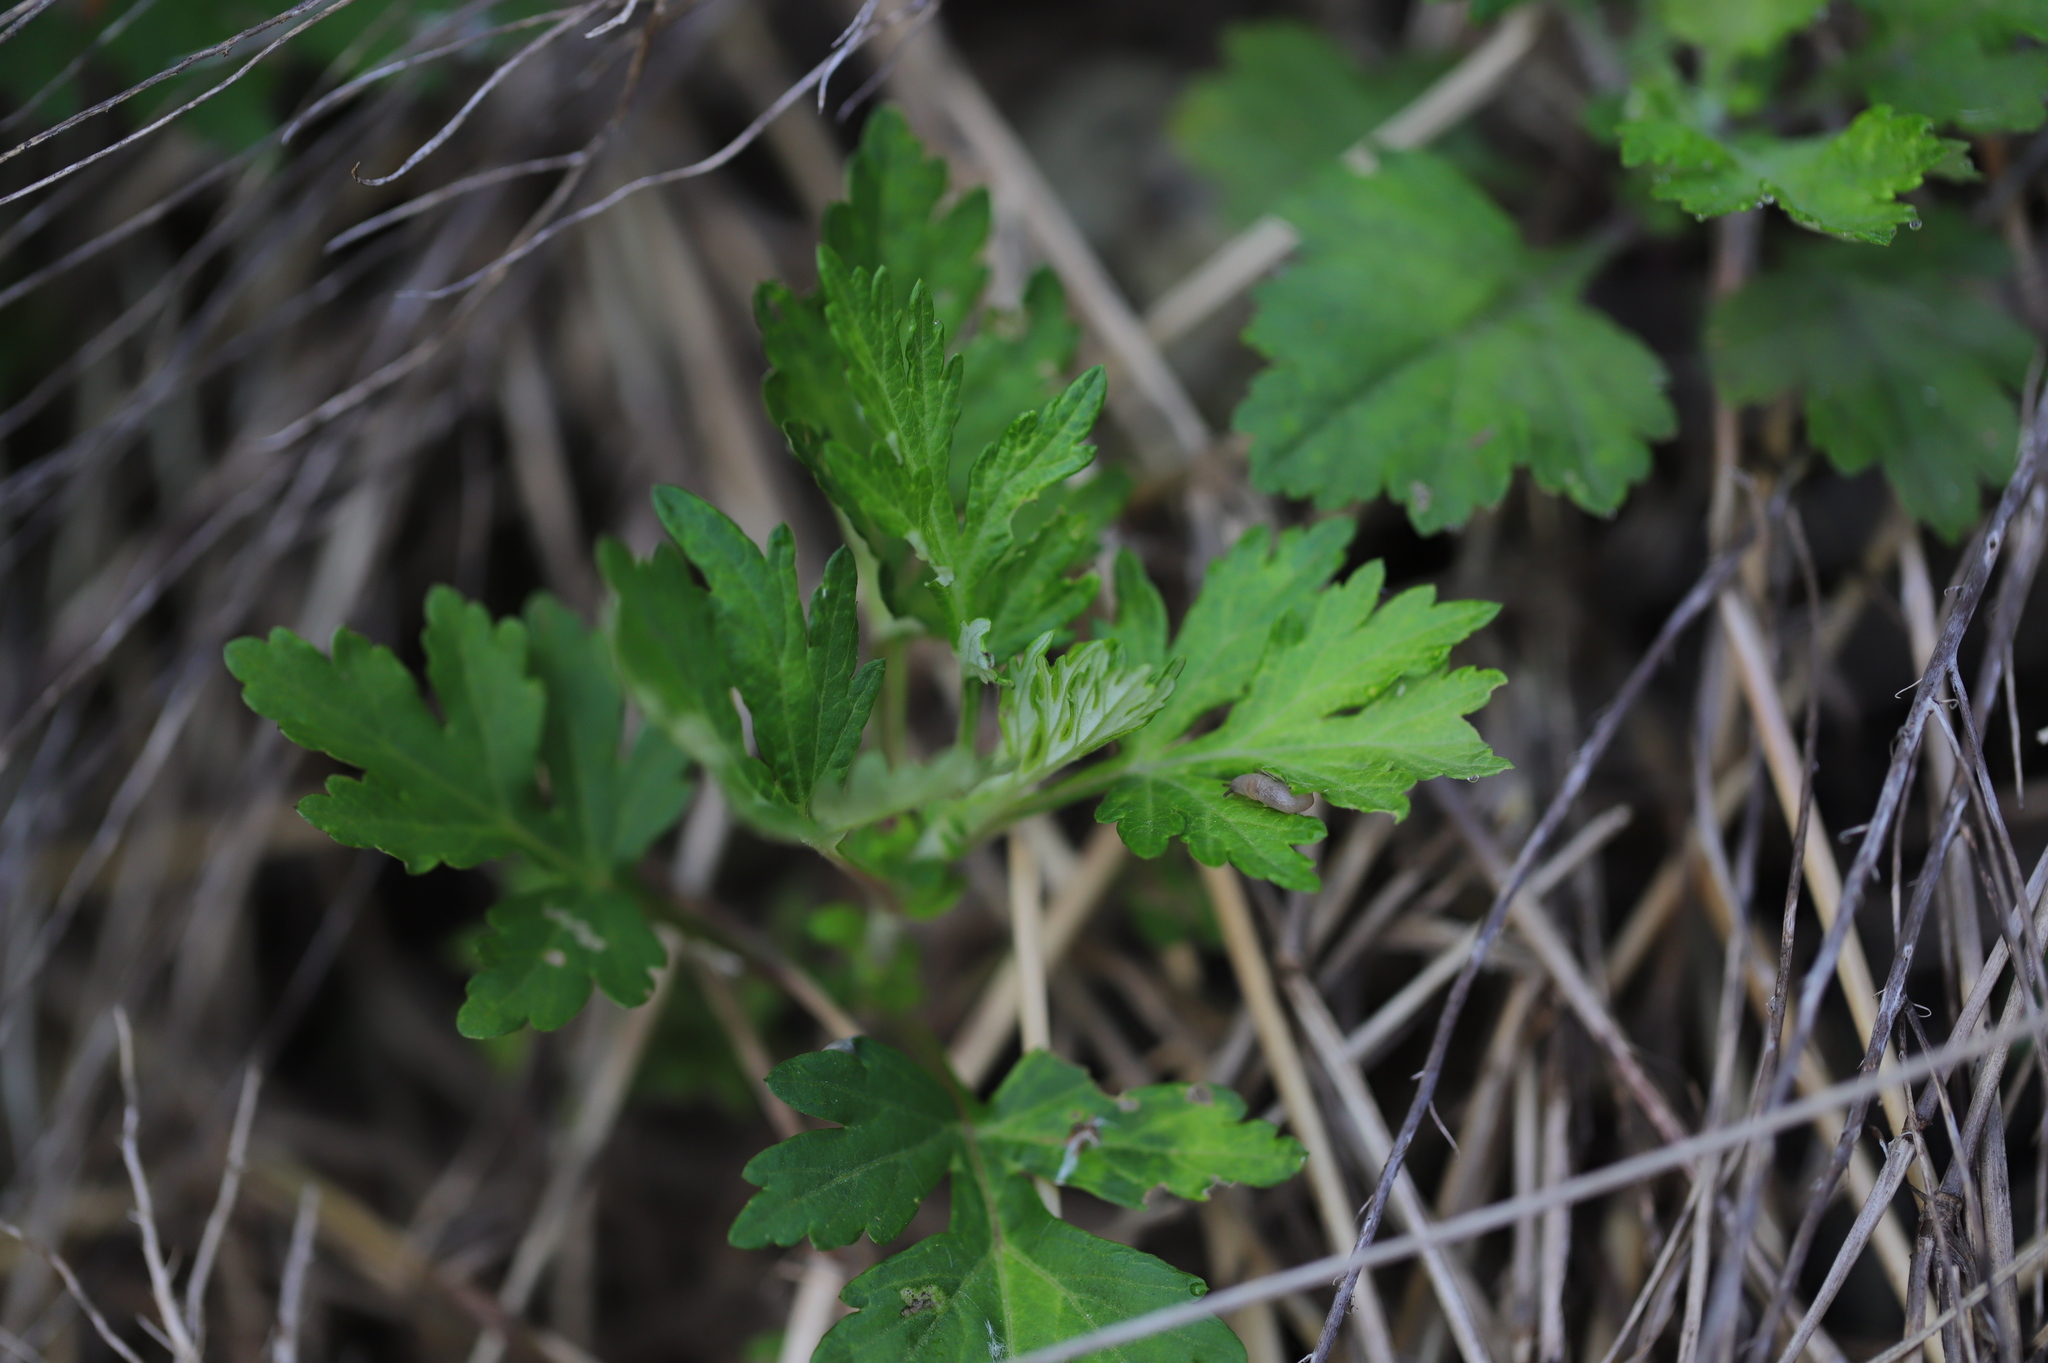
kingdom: Plantae
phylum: Tracheophyta
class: Magnoliopsida
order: Asterales
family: Asteraceae
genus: Artemisia
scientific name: Artemisia vulgaris
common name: Mugwort
